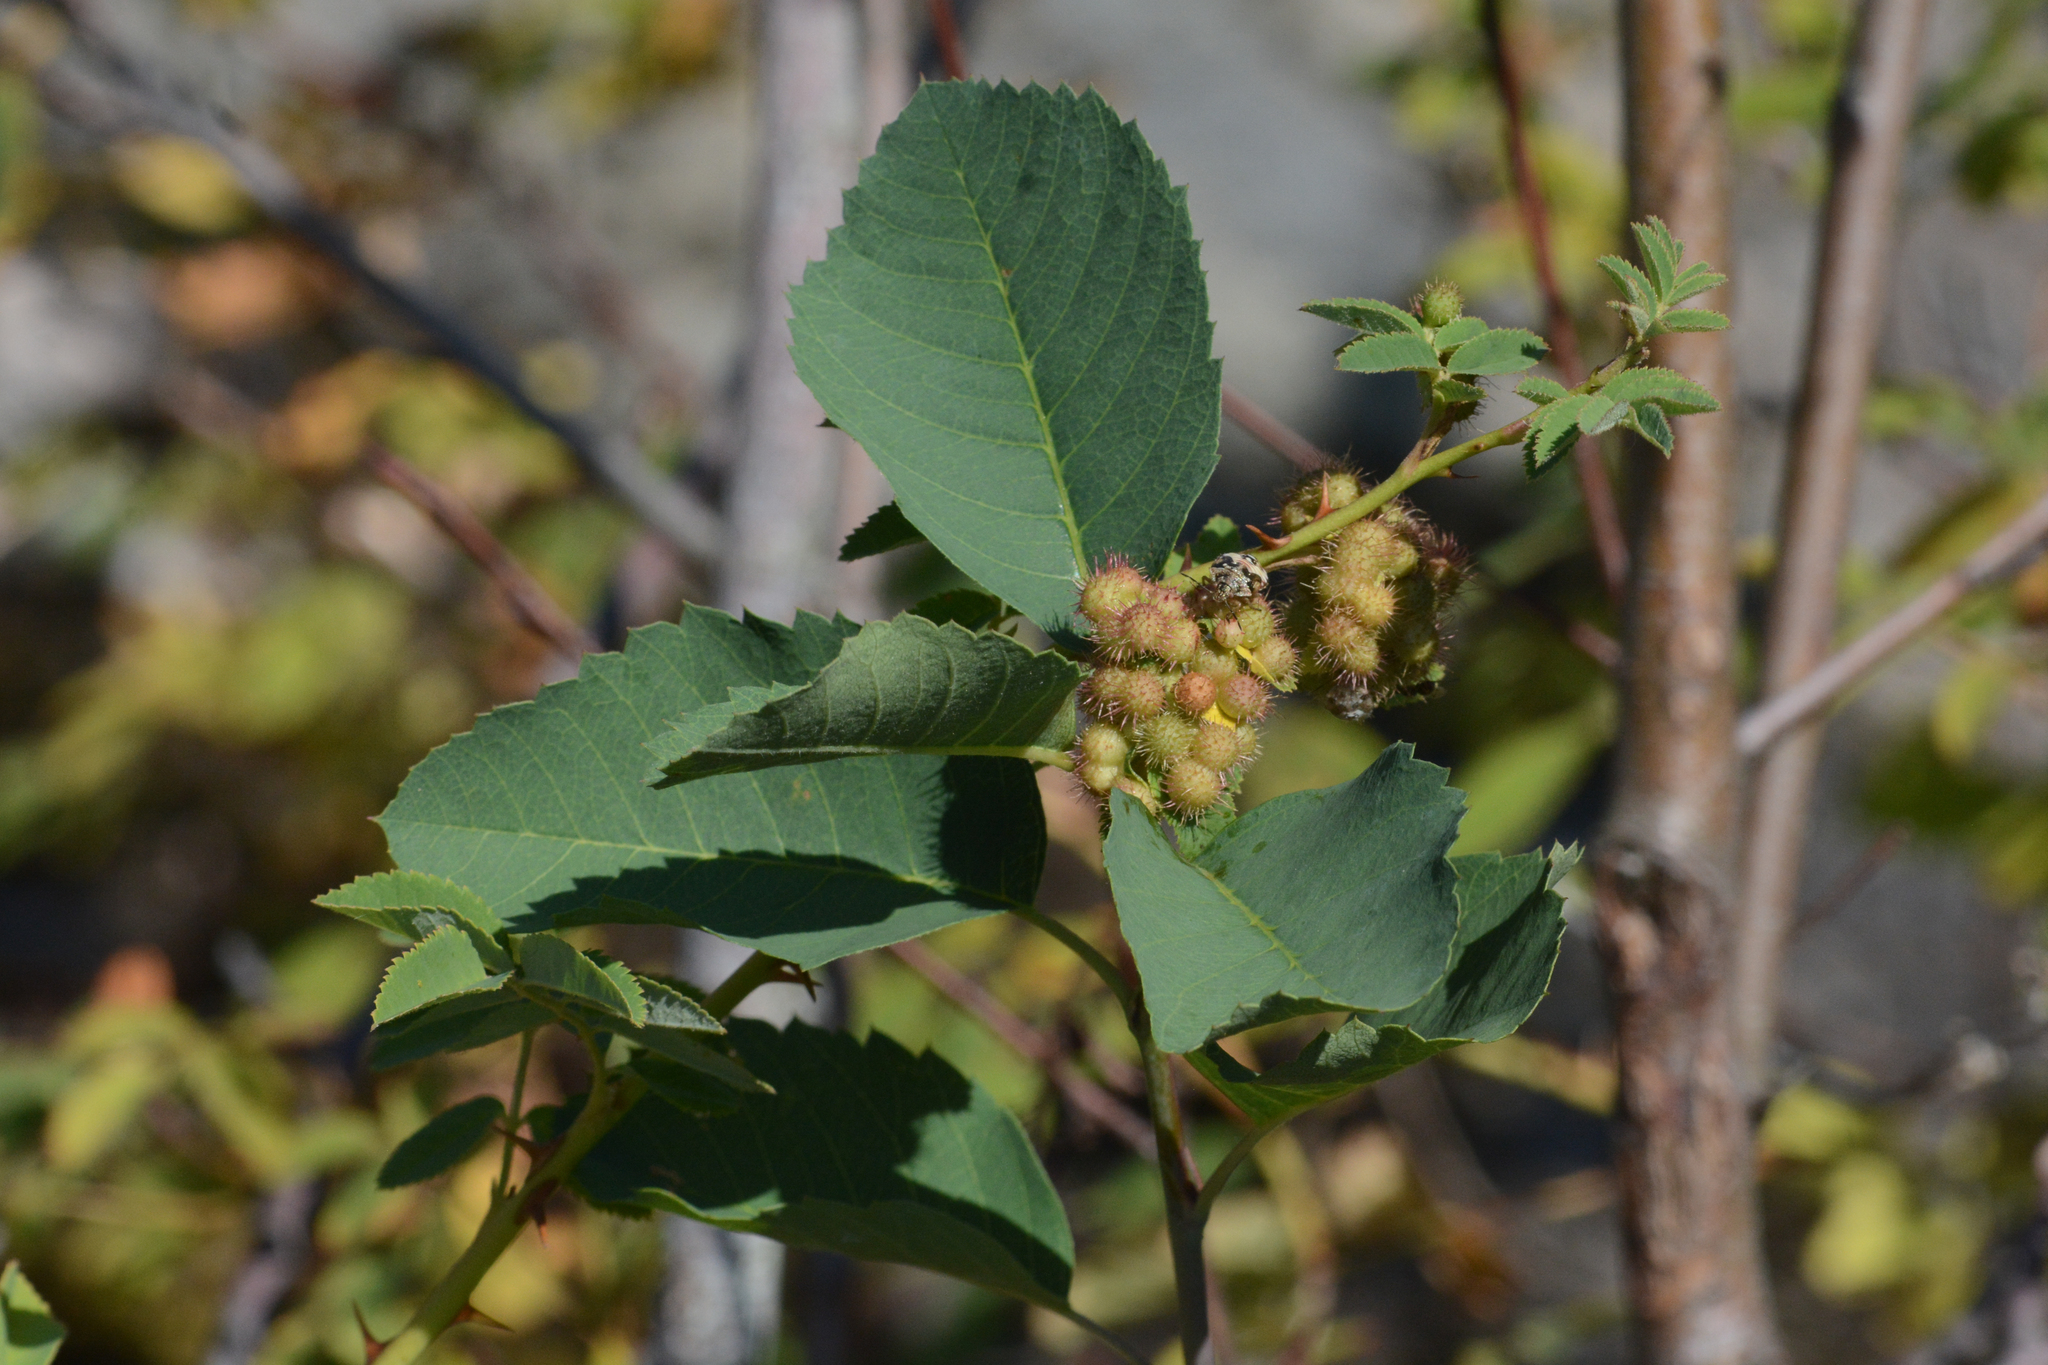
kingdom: Animalia
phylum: Arthropoda
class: Insecta
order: Hymenoptera
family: Cynipidae
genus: Diplolepis
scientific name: Diplolepis polita
